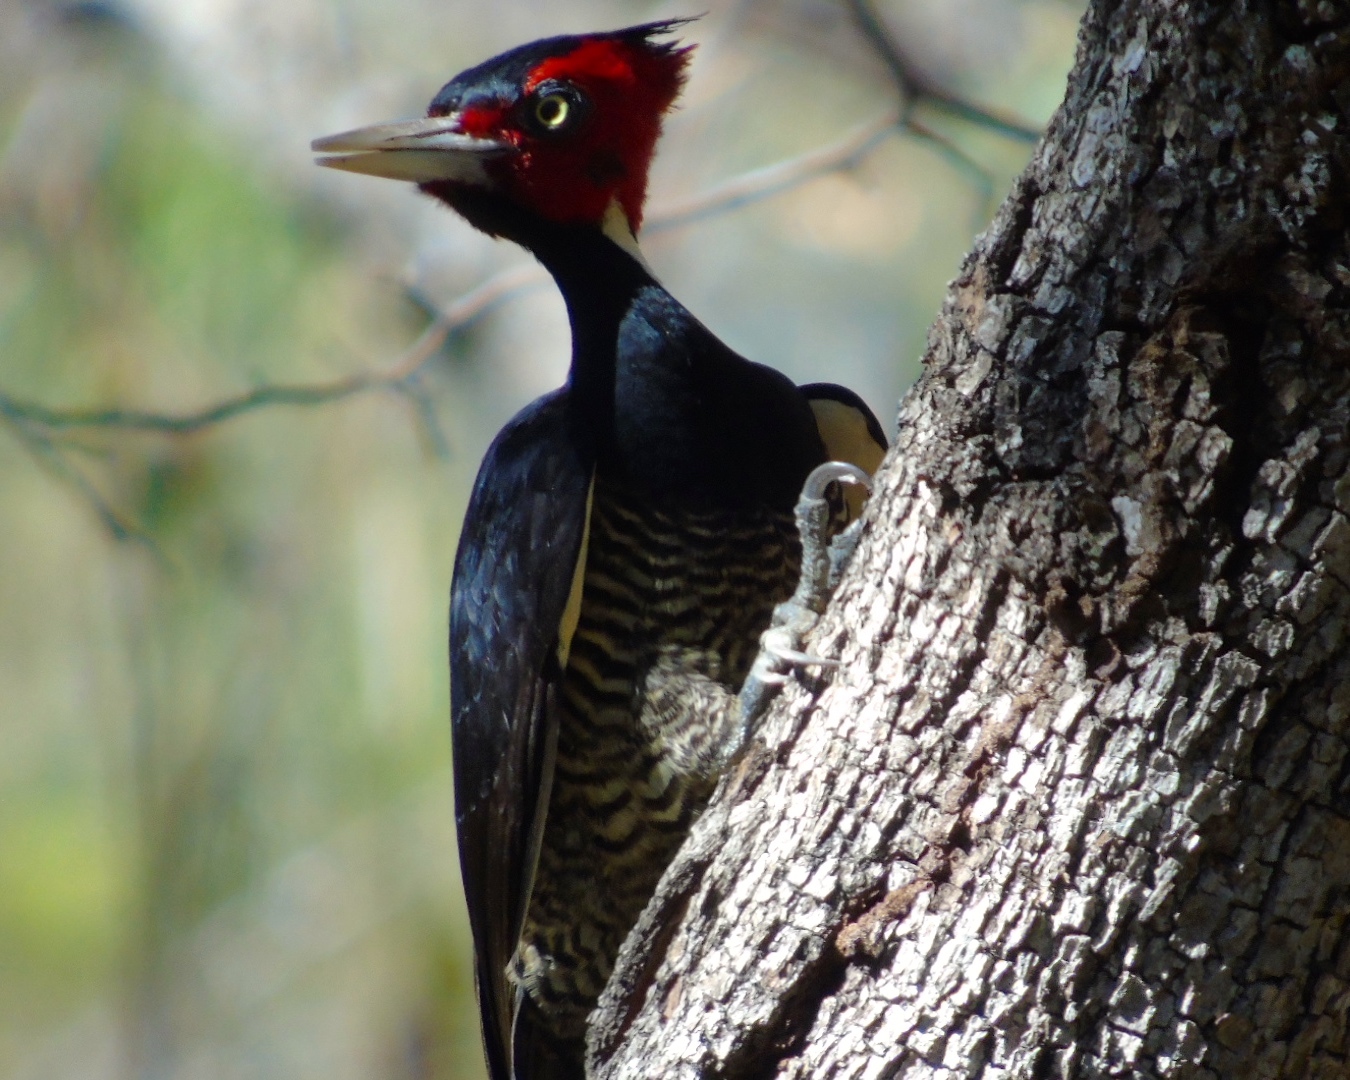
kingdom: Animalia
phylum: Chordata
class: Aves
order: Piciformes
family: Picidae
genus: Campephilus
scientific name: Campephilus guatemalensis
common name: Pale-billed woodpecker
